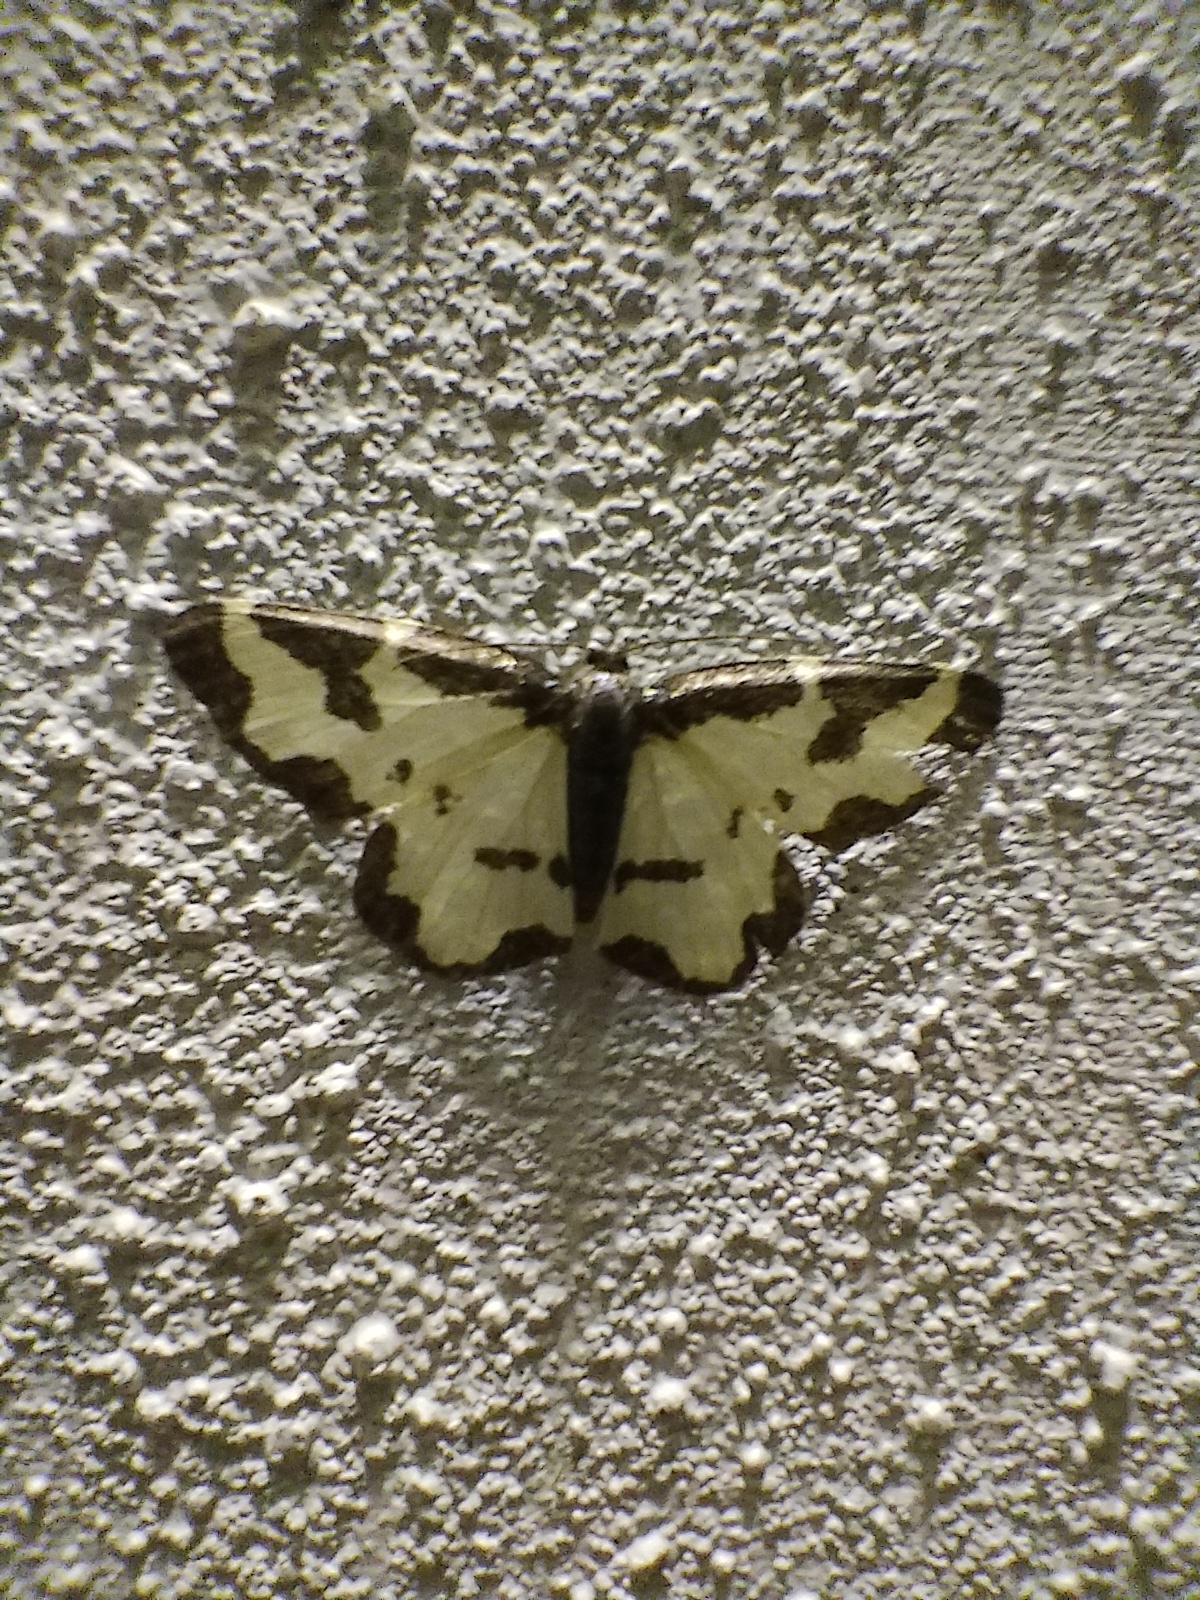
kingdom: Animalia
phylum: Arthropoda
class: Insecta
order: Lepidoptera
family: Geometridae
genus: Lomaspilis
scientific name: Lomaspilis marginata
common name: Clouded border
